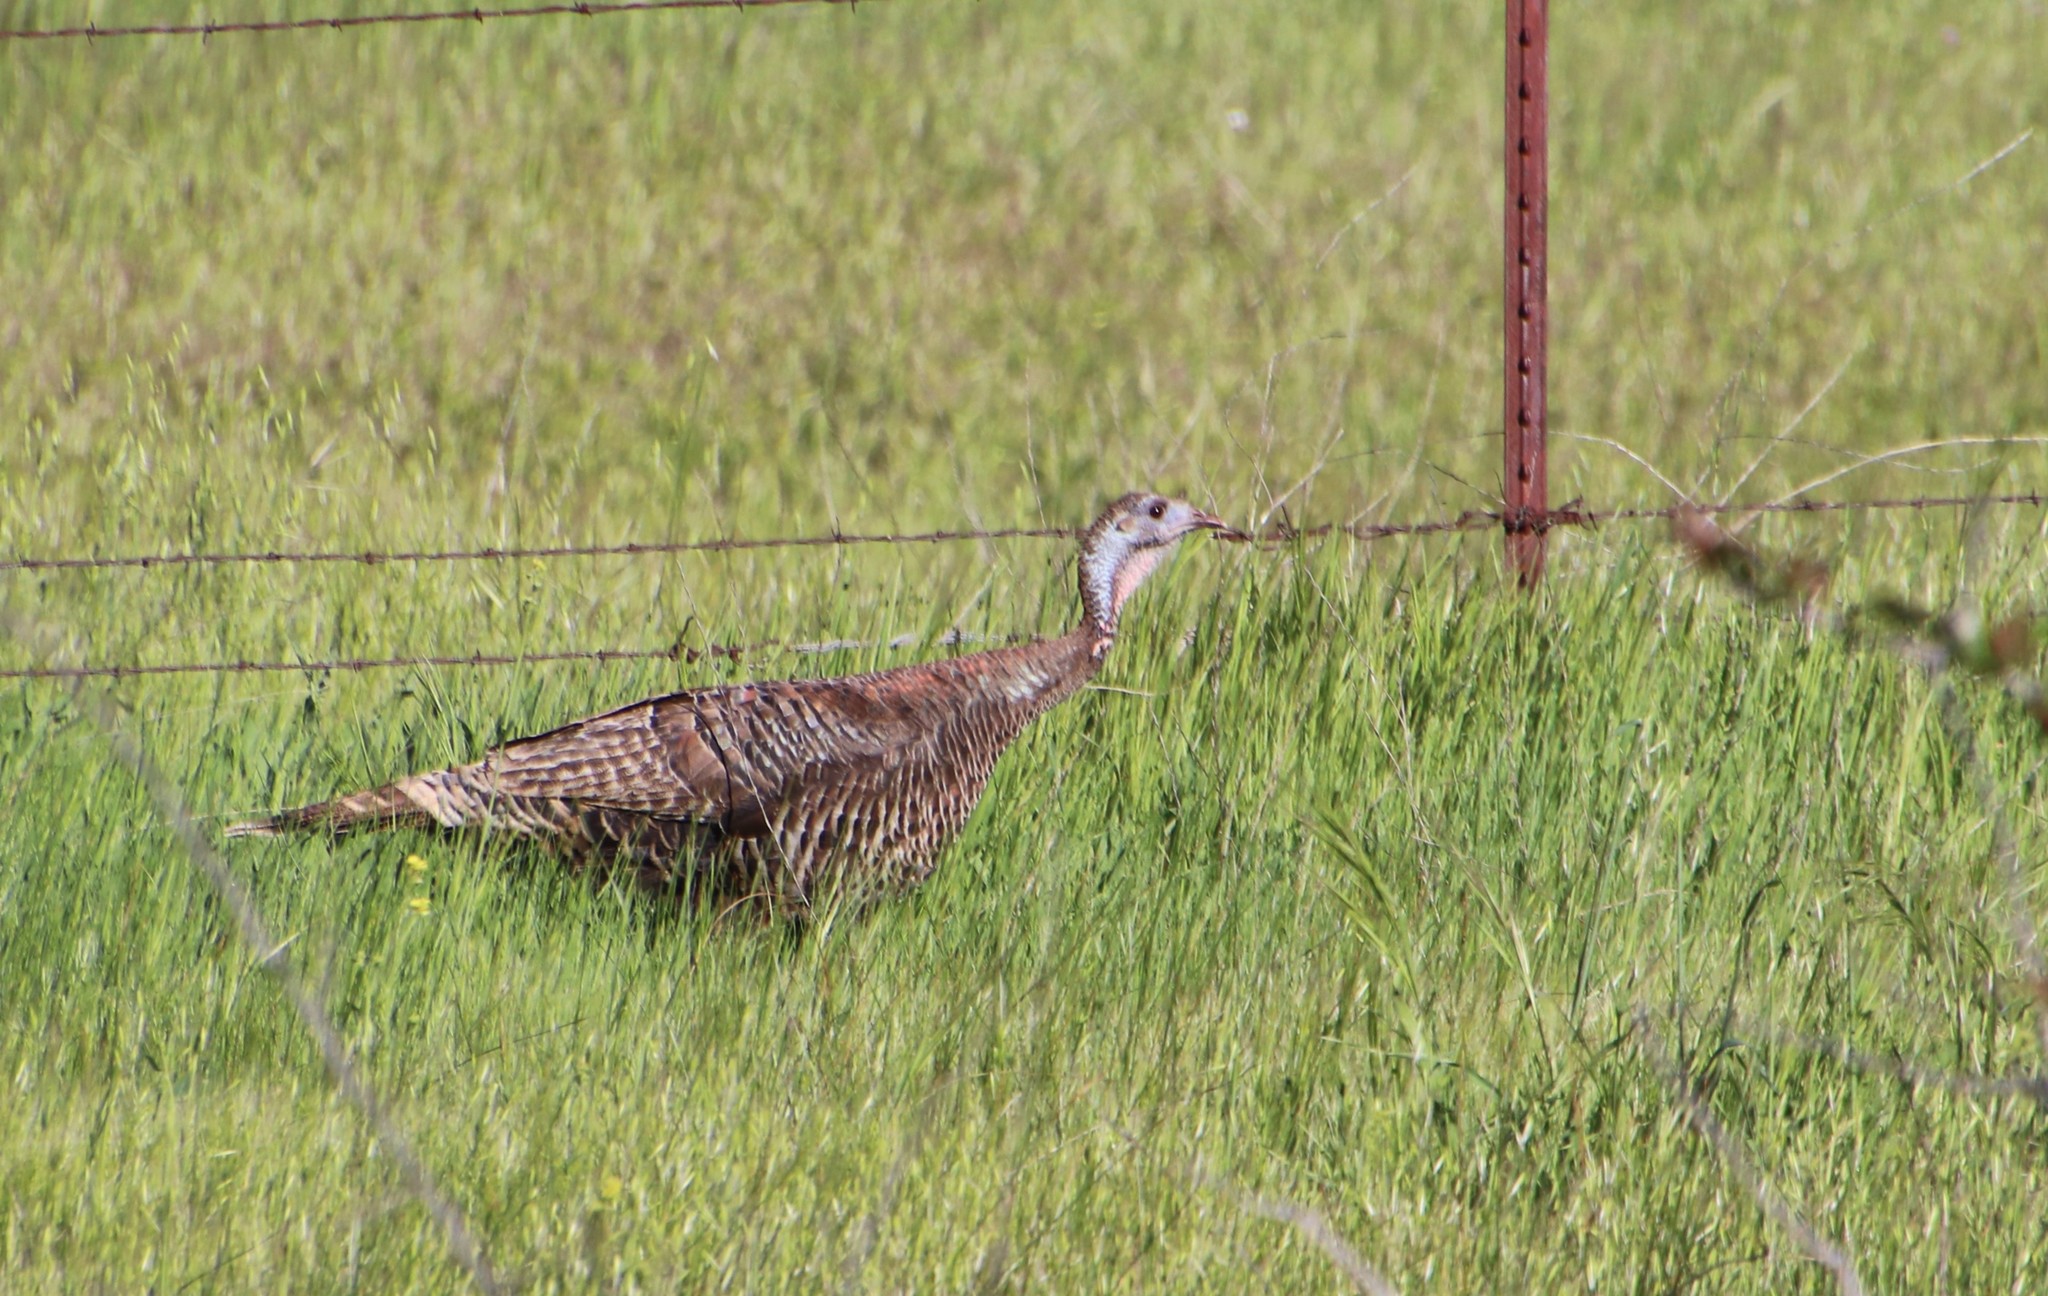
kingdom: Animalia
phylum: Chordata
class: Aves
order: Galliformes
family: Phasianidae
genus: Meleagris
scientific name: Meleagris gallopavo
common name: Wild turkey
